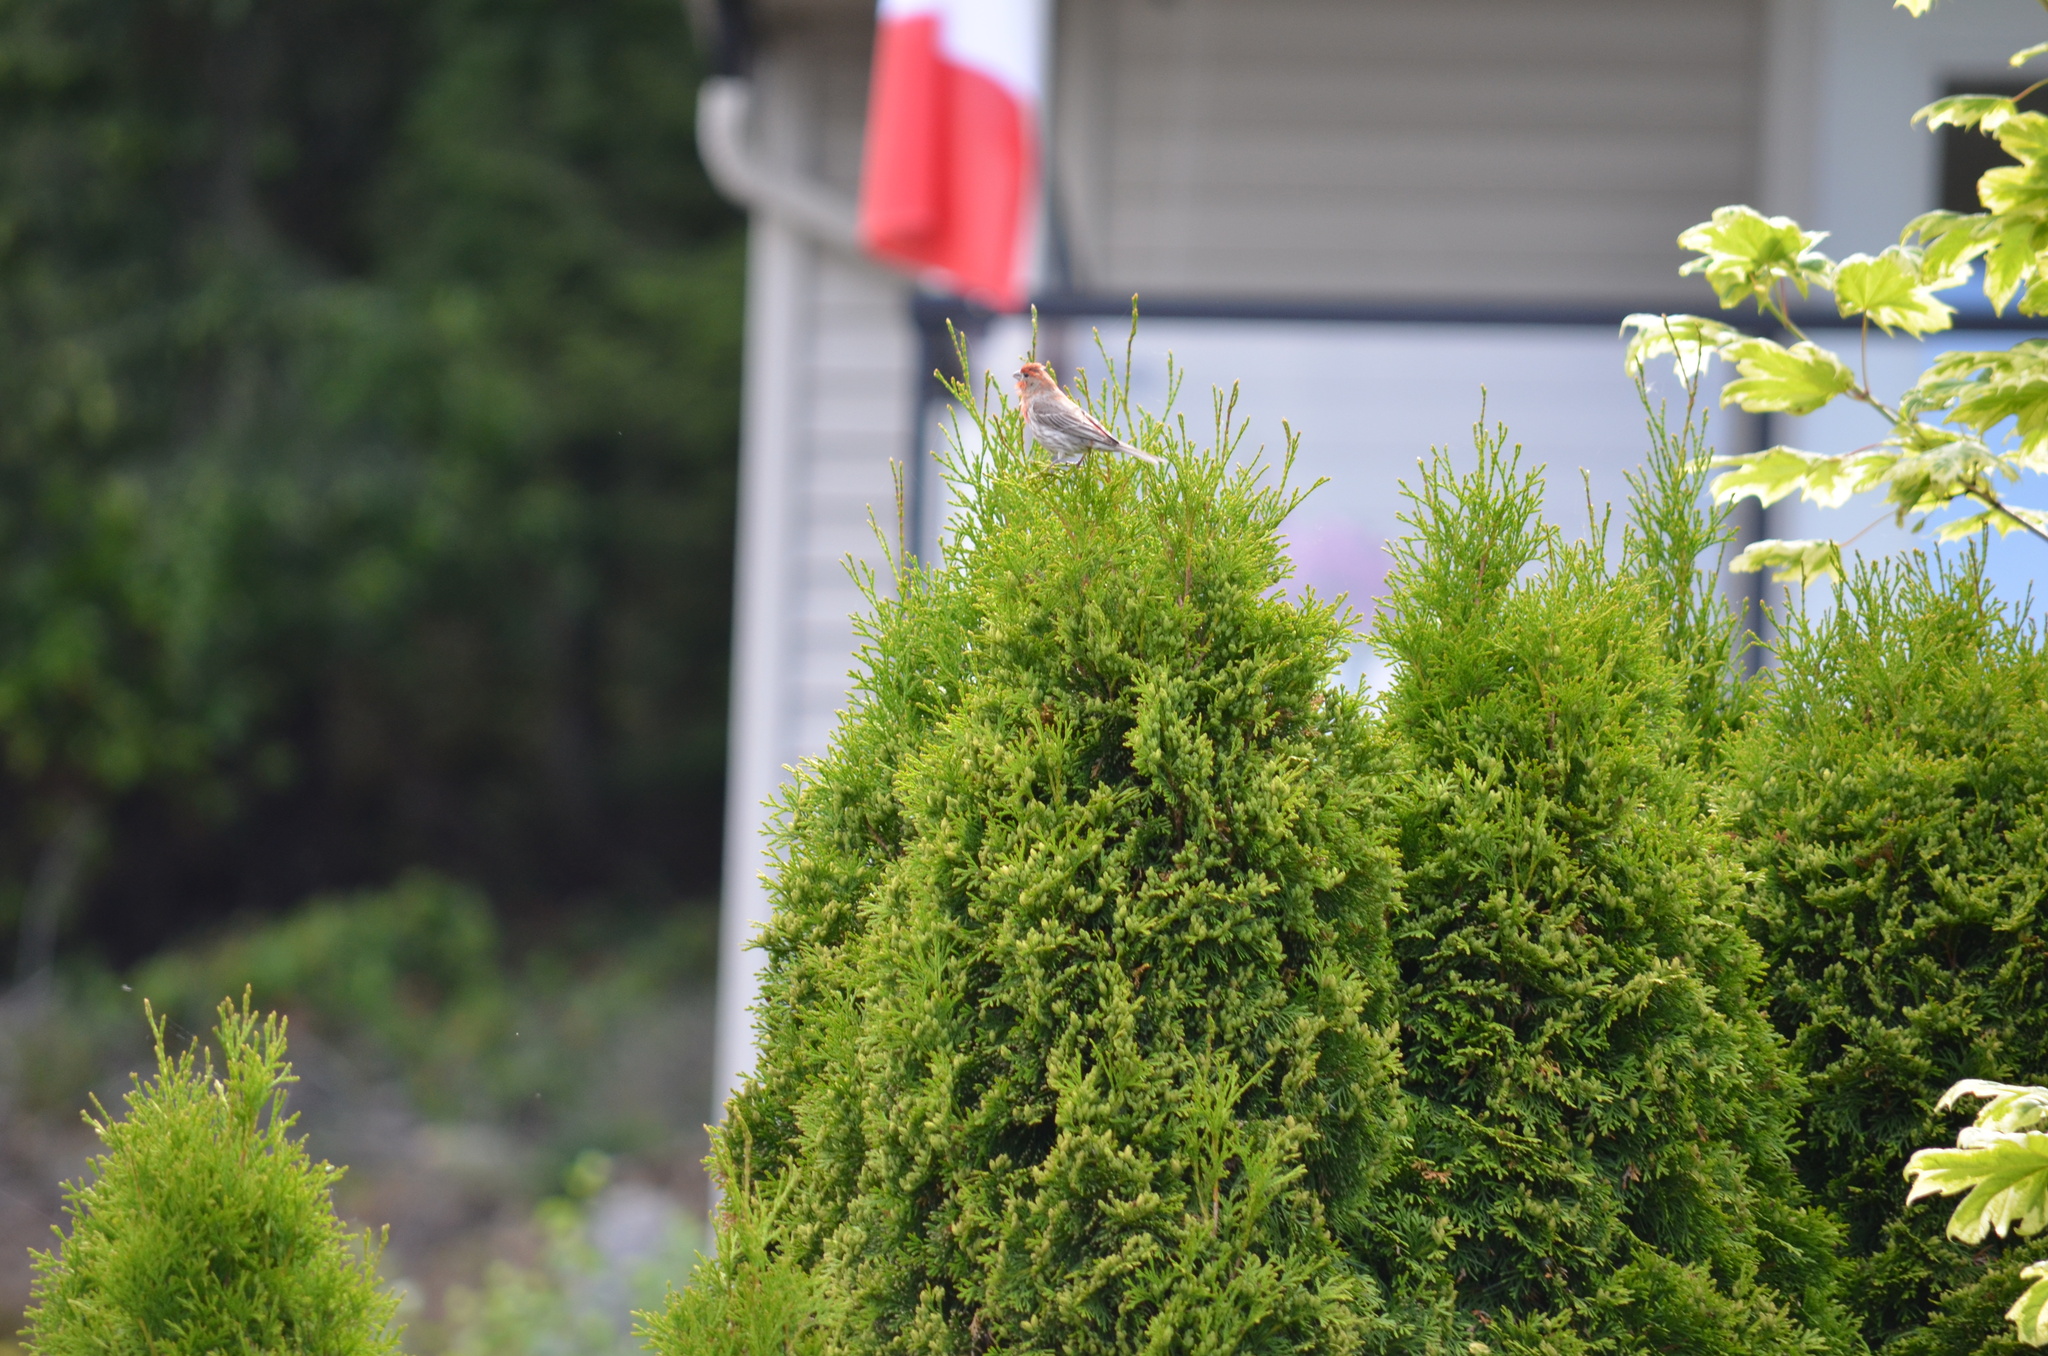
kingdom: Animalia
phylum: Chordata
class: Aves
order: Passeriformes
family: Fringillidae
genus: Haemorhous
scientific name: Haemorhous mexicanus
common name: House finch
